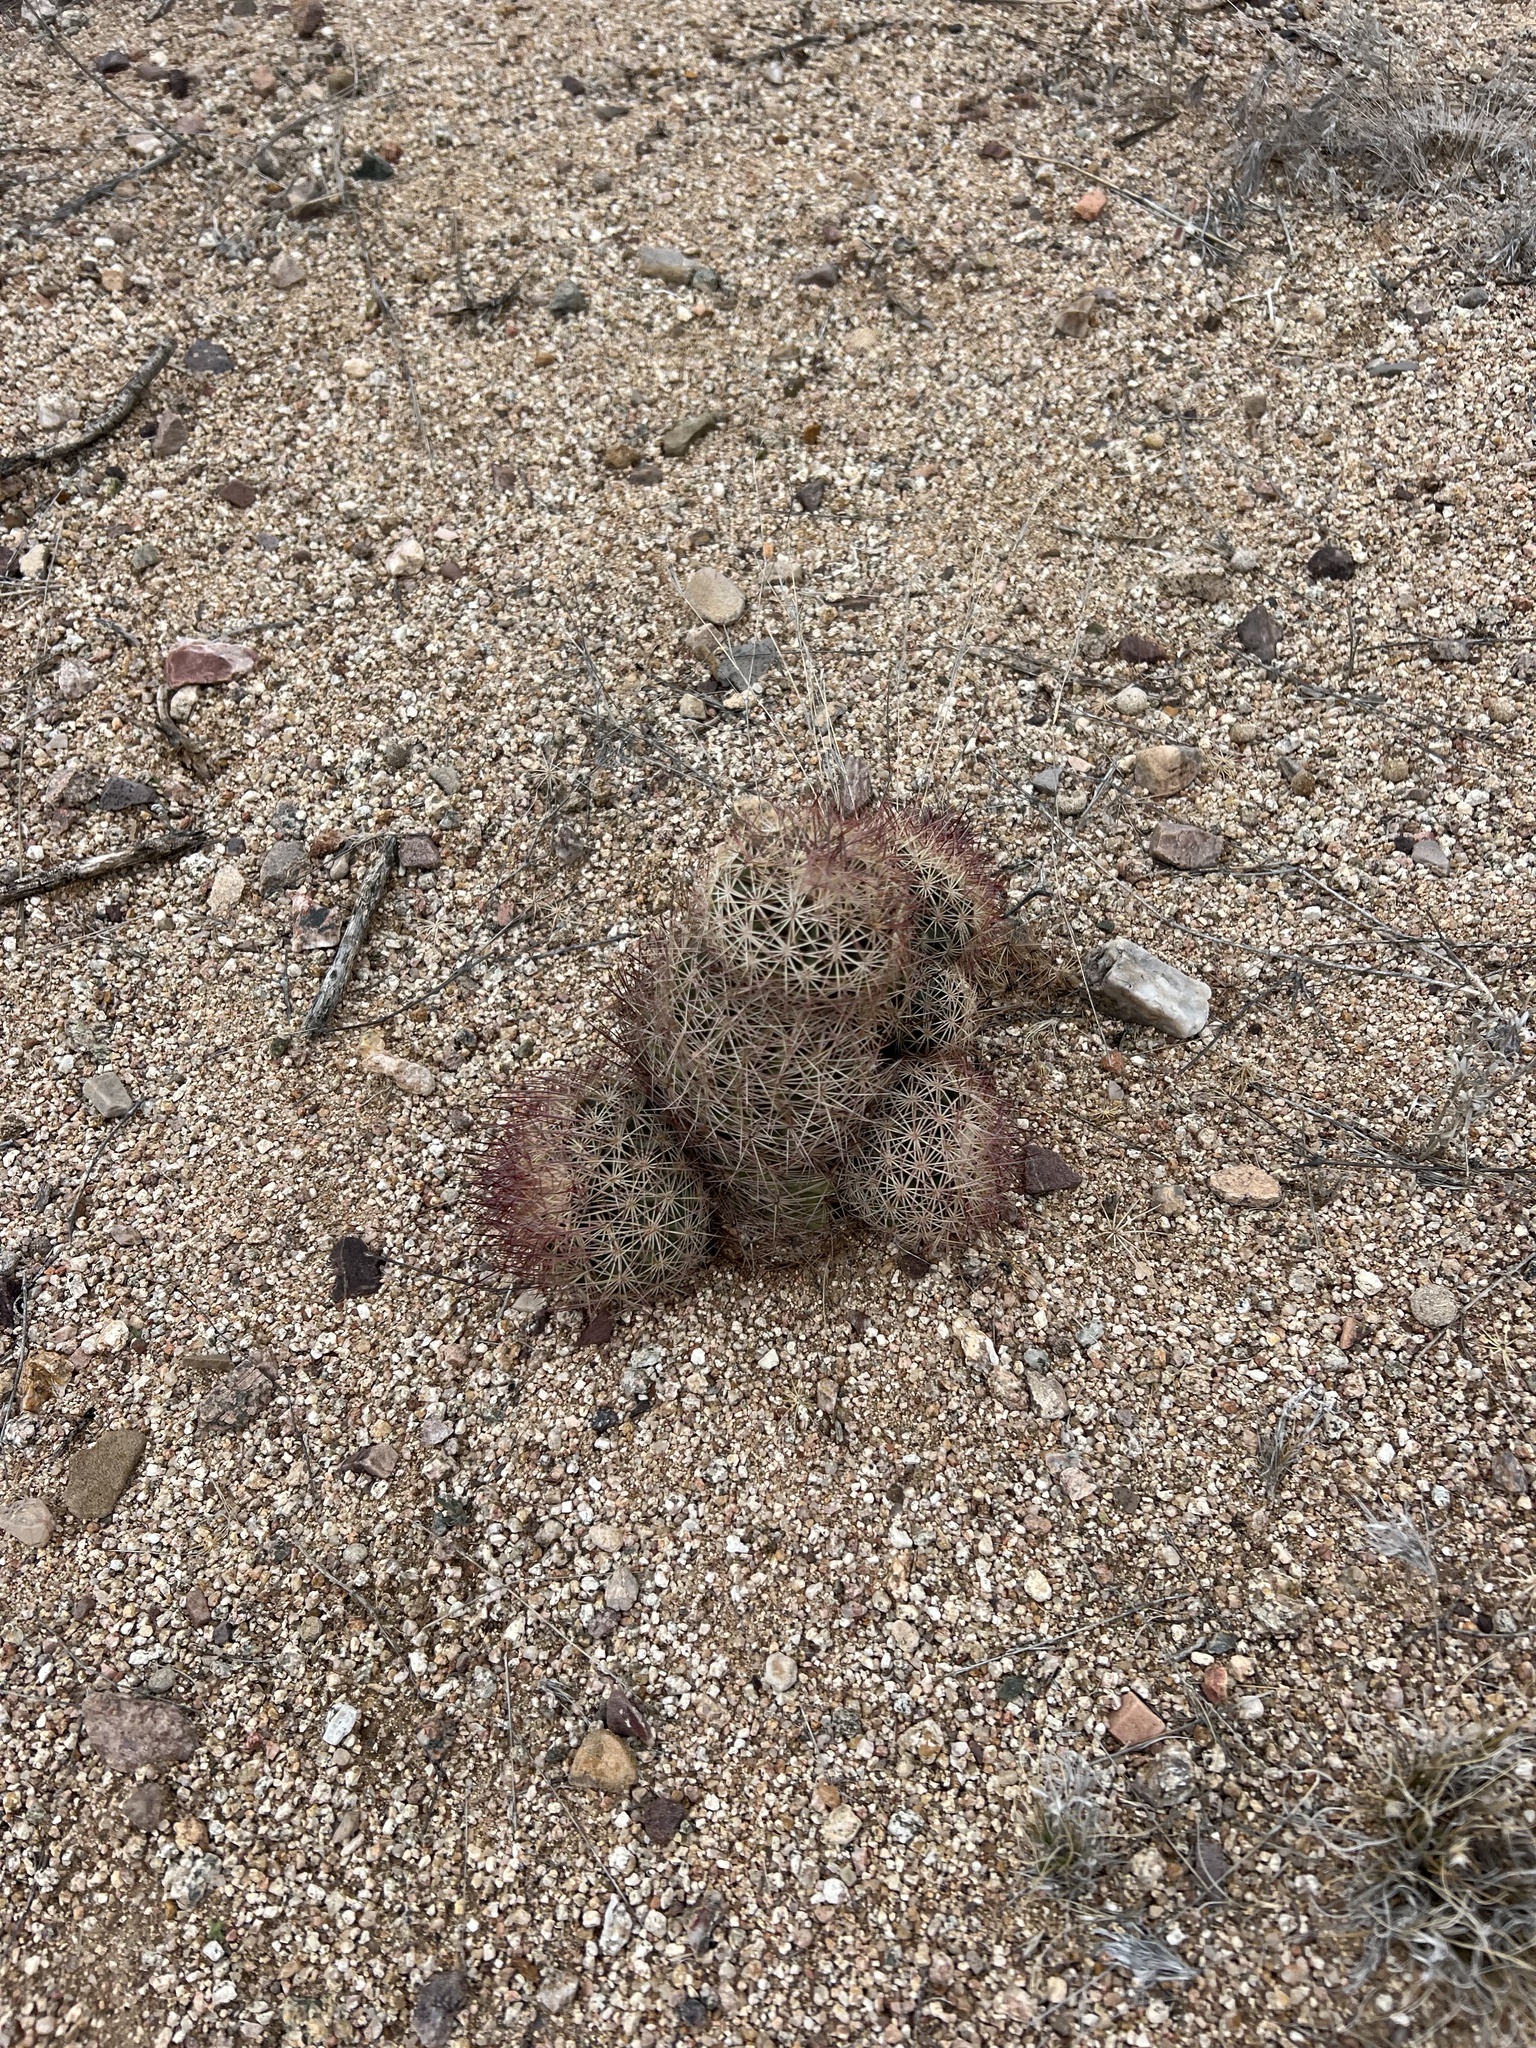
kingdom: Plantae
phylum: Tracheophyta
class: Magnoliopsida
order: Caryophyllales
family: Cactaceae
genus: Sclerocactus
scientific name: Sclerocactus johnsonii
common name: Eight-spine fishhook cactus
